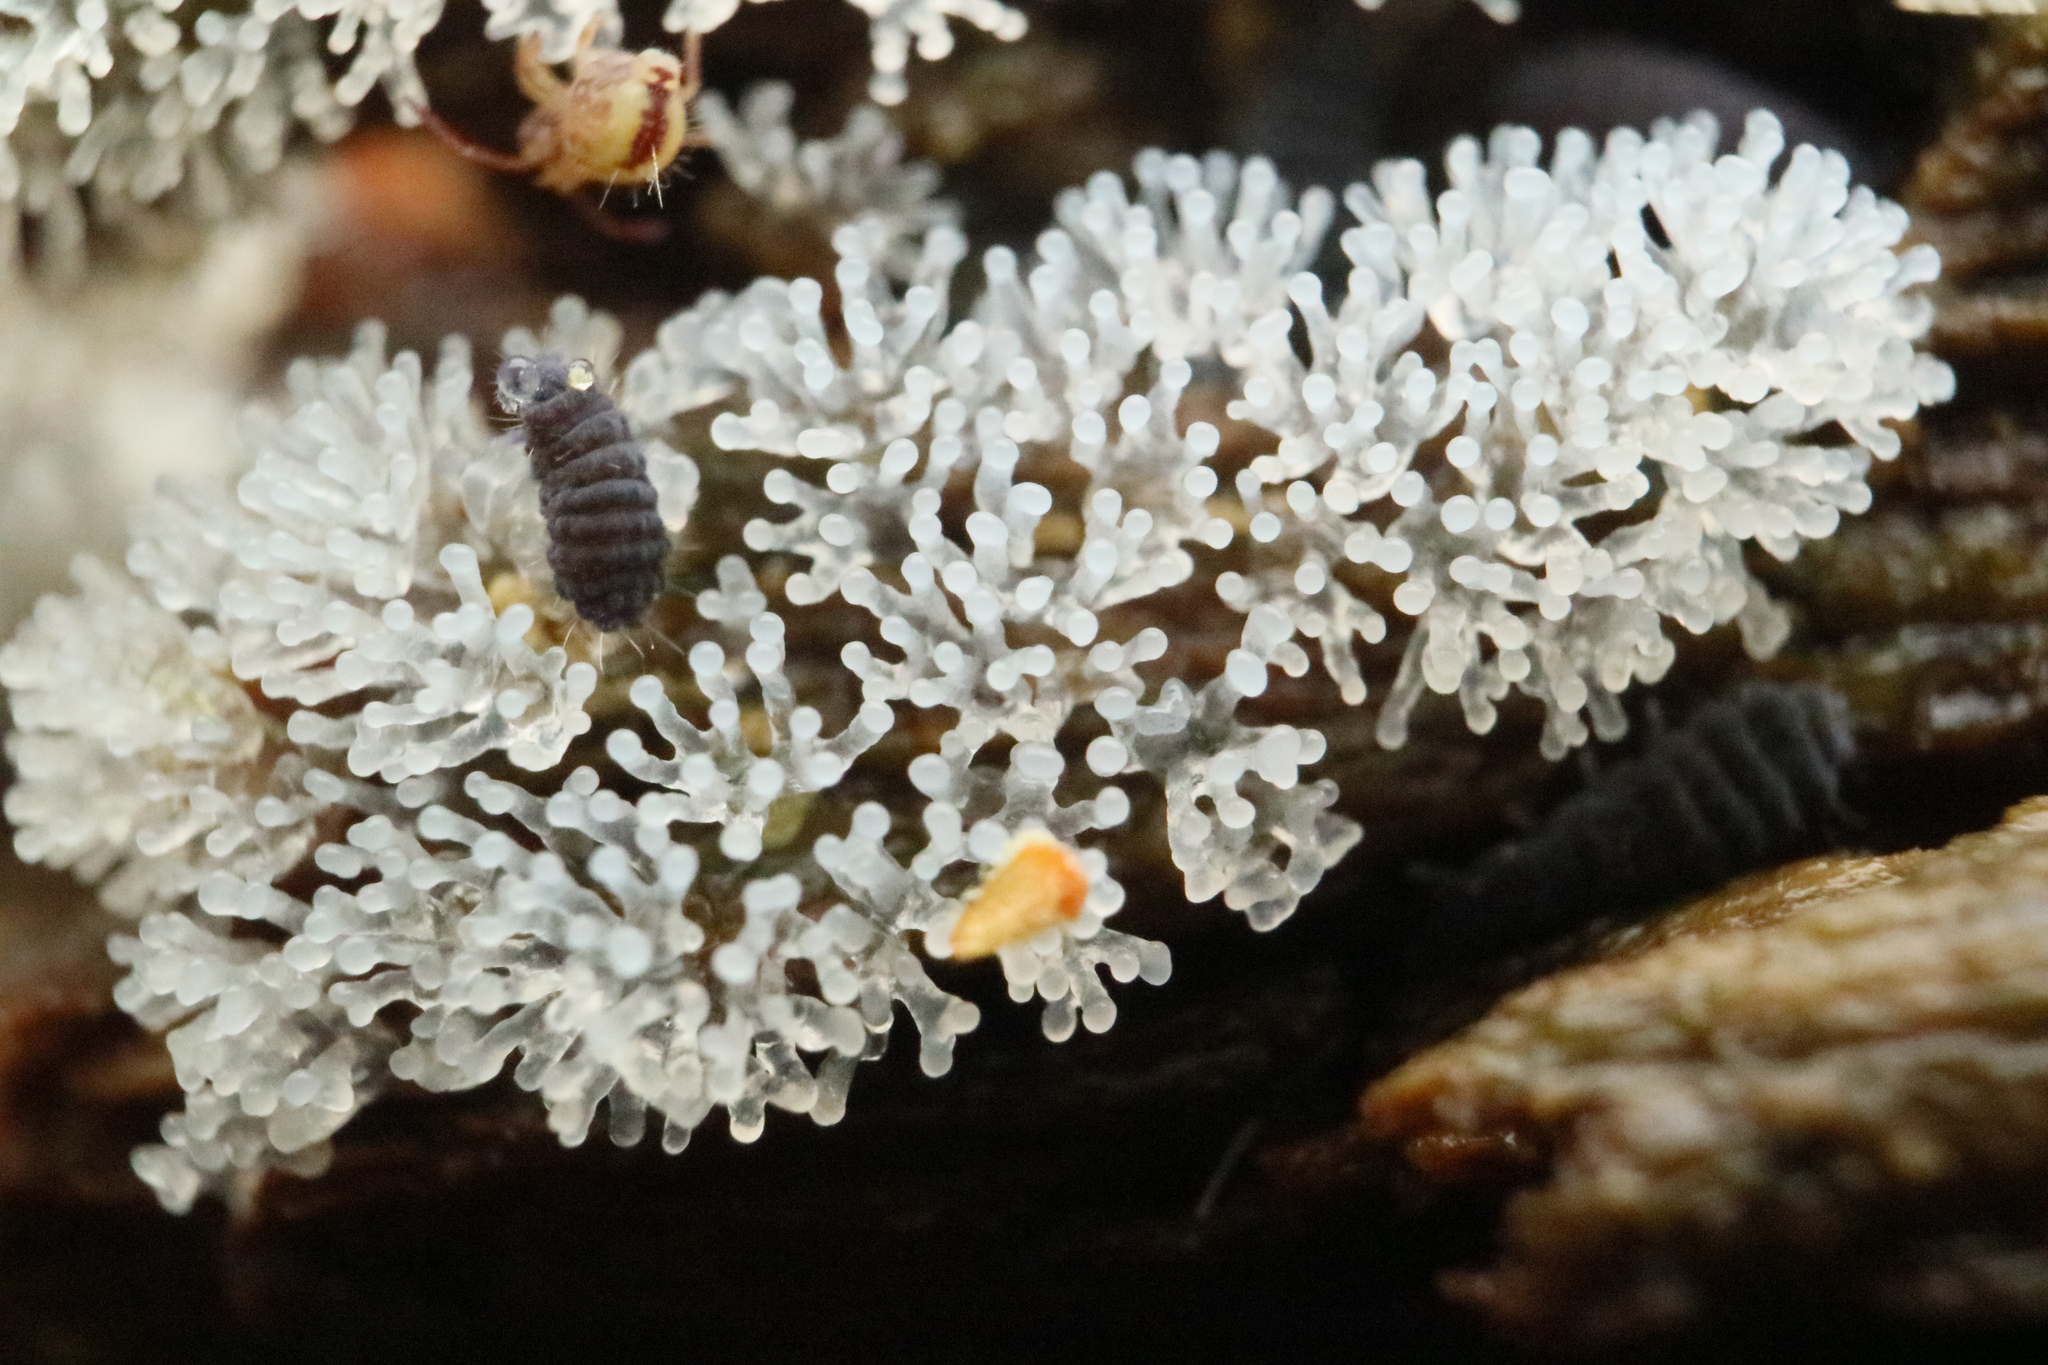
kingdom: Protozoa
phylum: Mycetozoa
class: Protosteliomycetes
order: Ceratiomyxales
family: Ceratiomyxaceae
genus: Ceratiomyxa
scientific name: Ceratiomyxa fruticulosa
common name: Honeycomb coral slime mold
